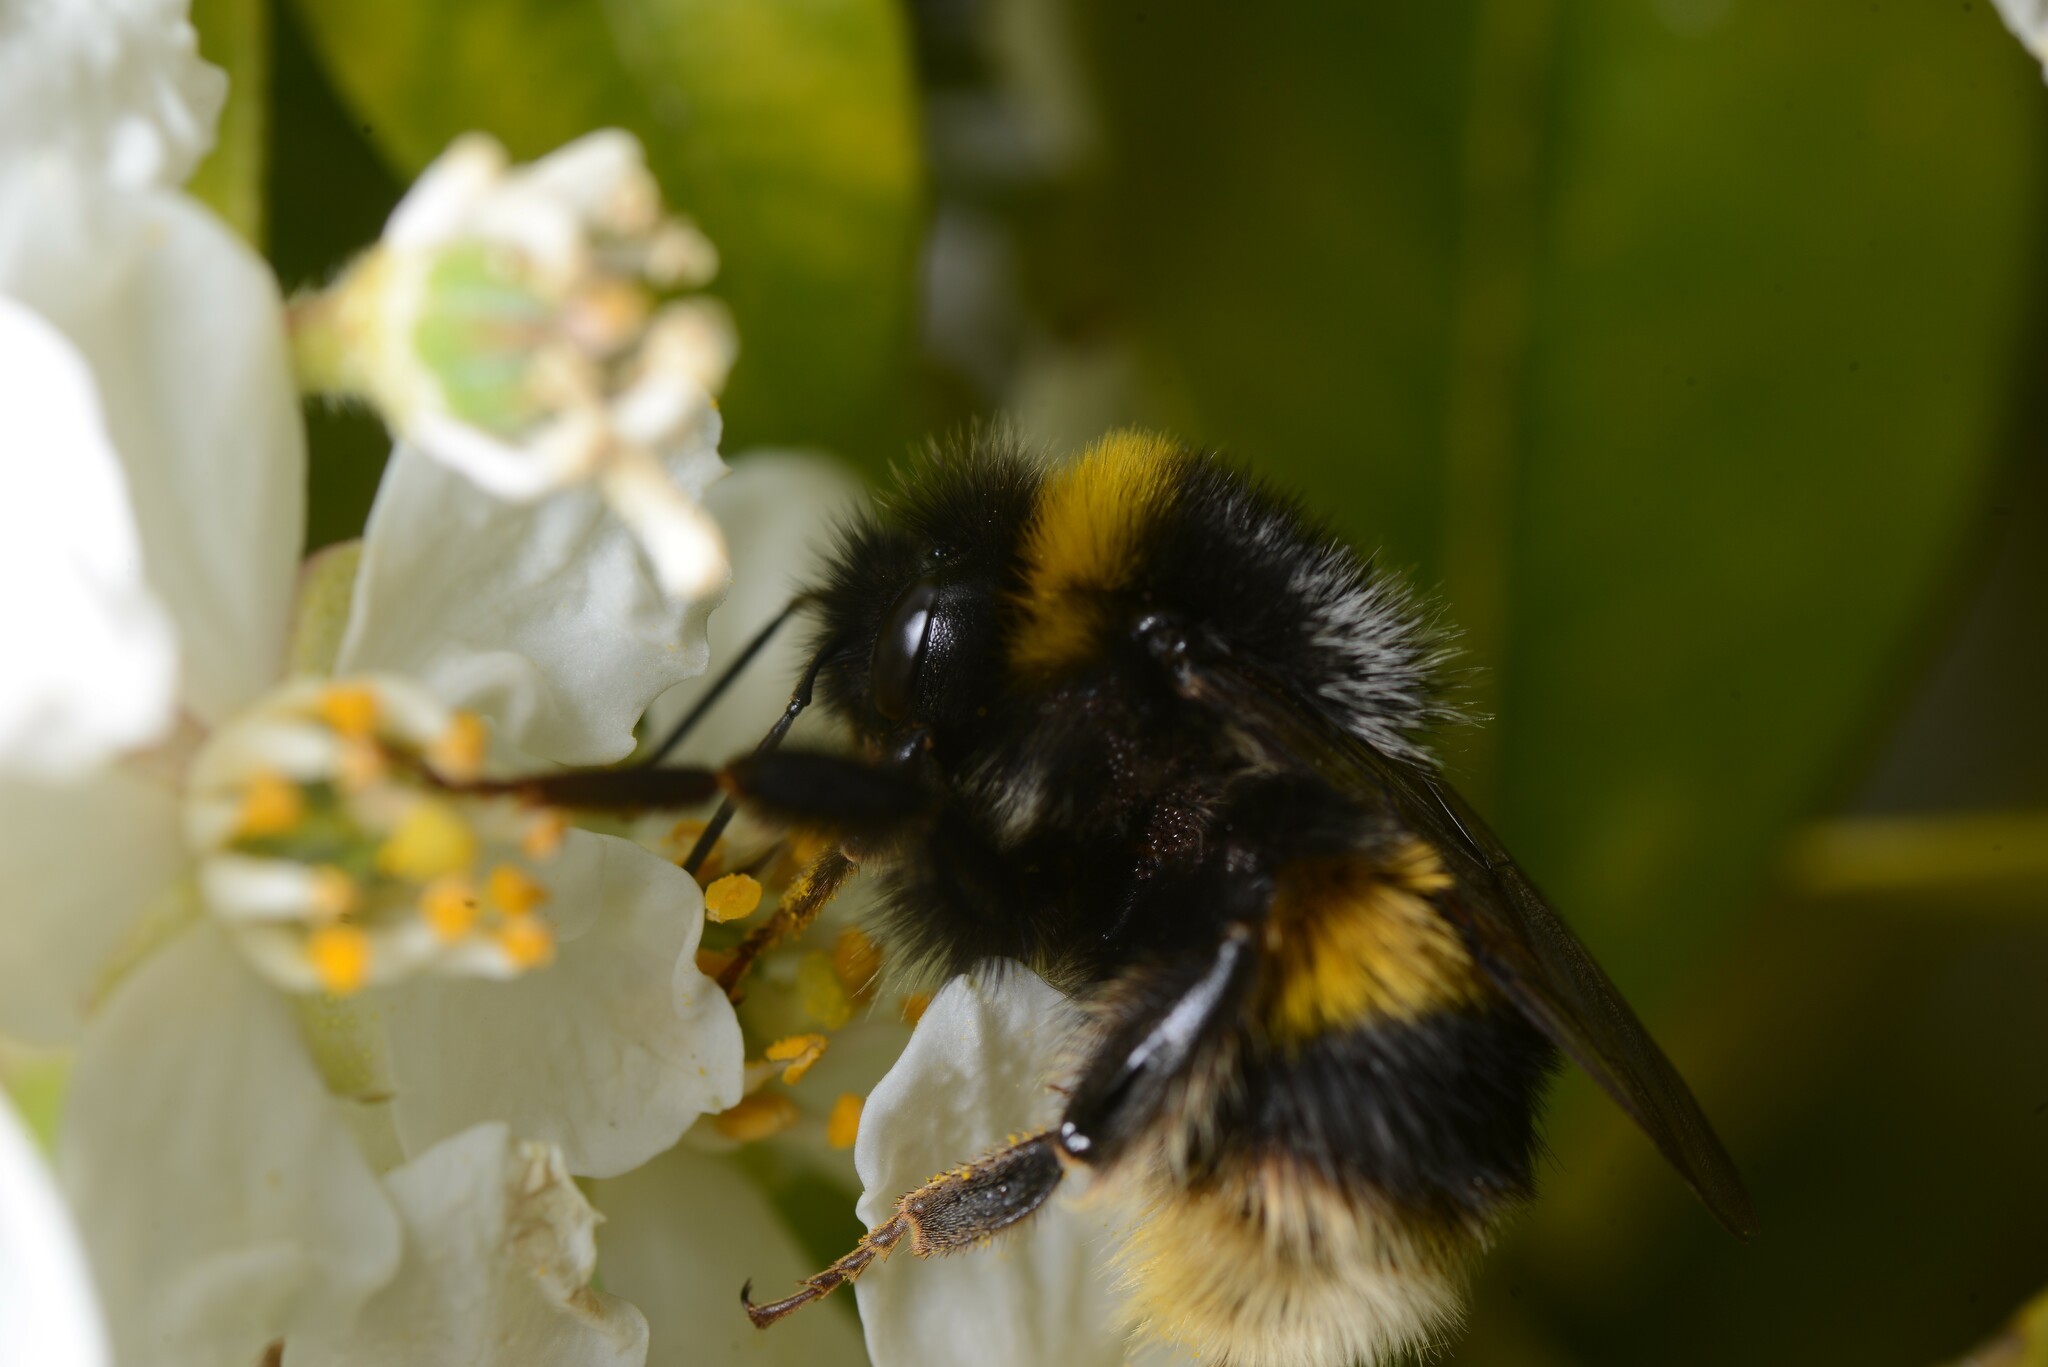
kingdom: Animalia
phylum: Arthropoda
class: Insecta
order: Hymenoptera
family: Apidae
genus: Bombus
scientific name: Bombus terrestris
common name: Buff-tailed bumblebee
